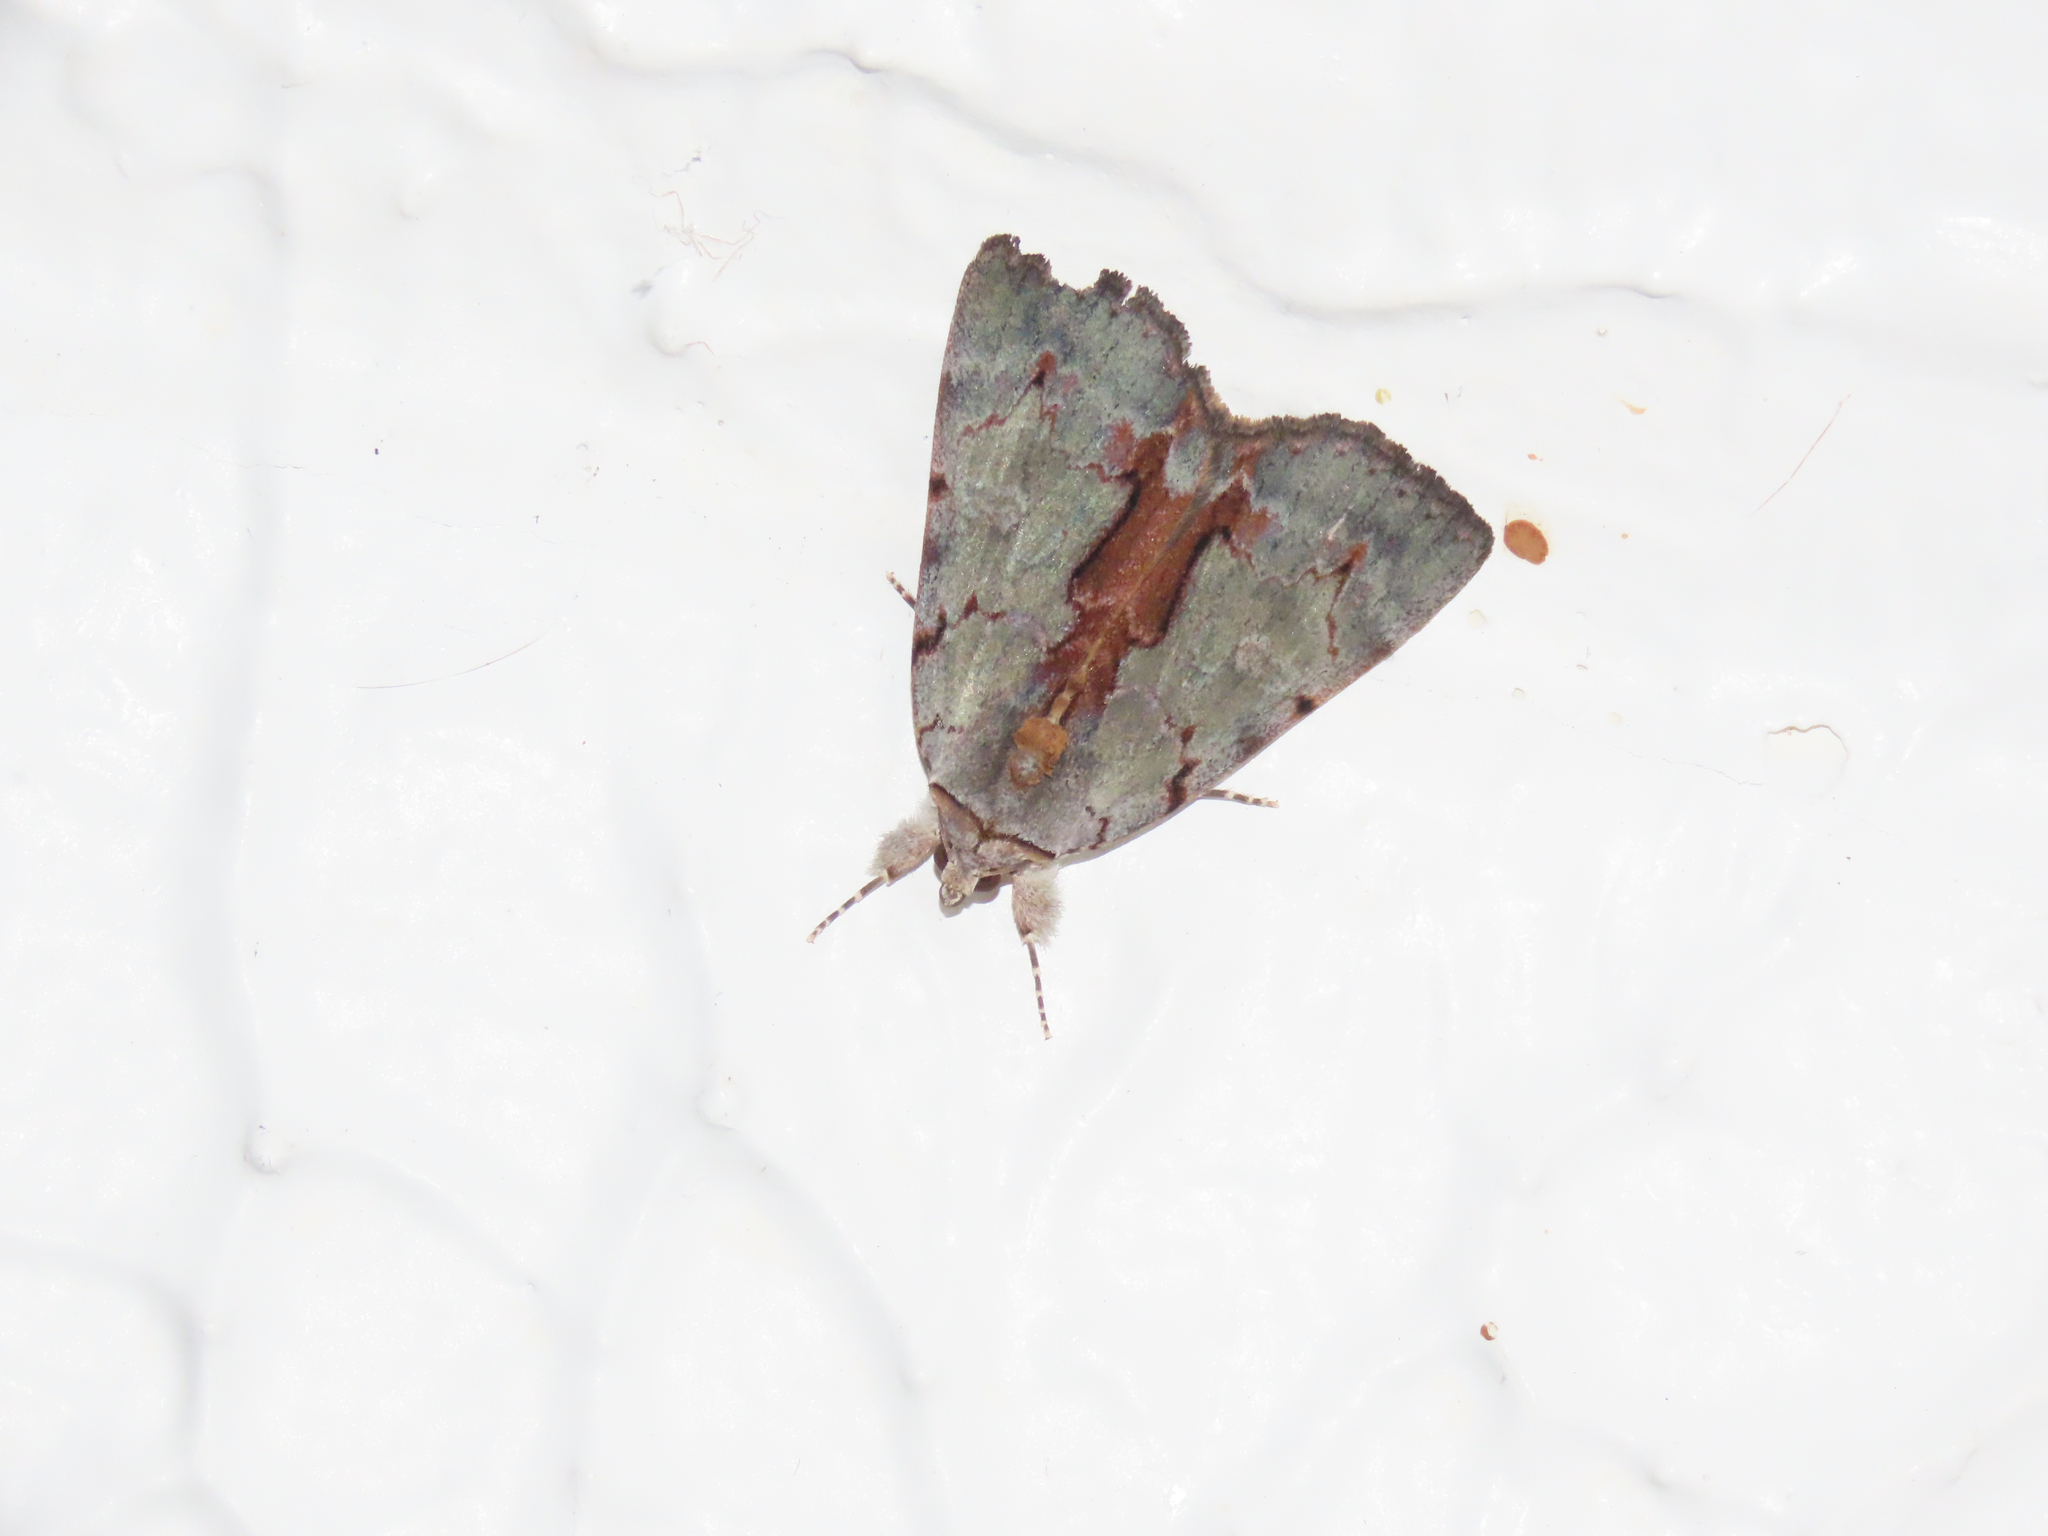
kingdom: Animalia
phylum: Arthropoda
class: Insecta
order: Lepidoptera
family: Erebidae
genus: Catocala
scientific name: Catocala grynea
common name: Woody underwing
